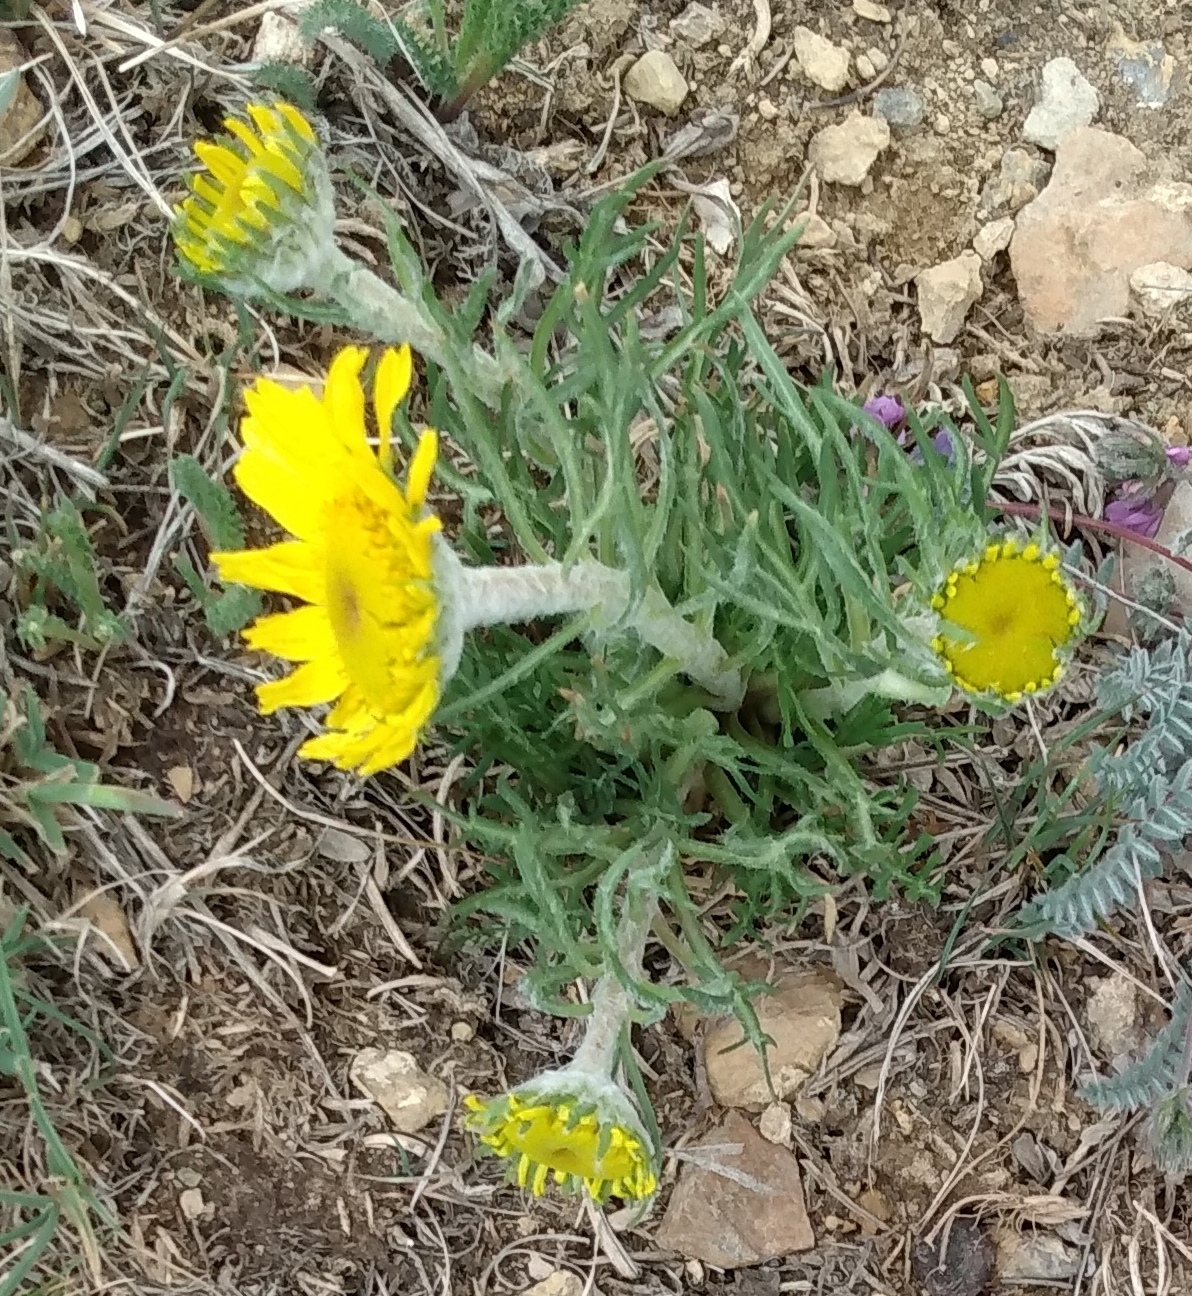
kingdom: Plantae
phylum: Tracheophyta
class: Magnoliopsida
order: Asterales
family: Asteraceae
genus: Hymenoxys
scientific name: Hymenoxys grandiflora
